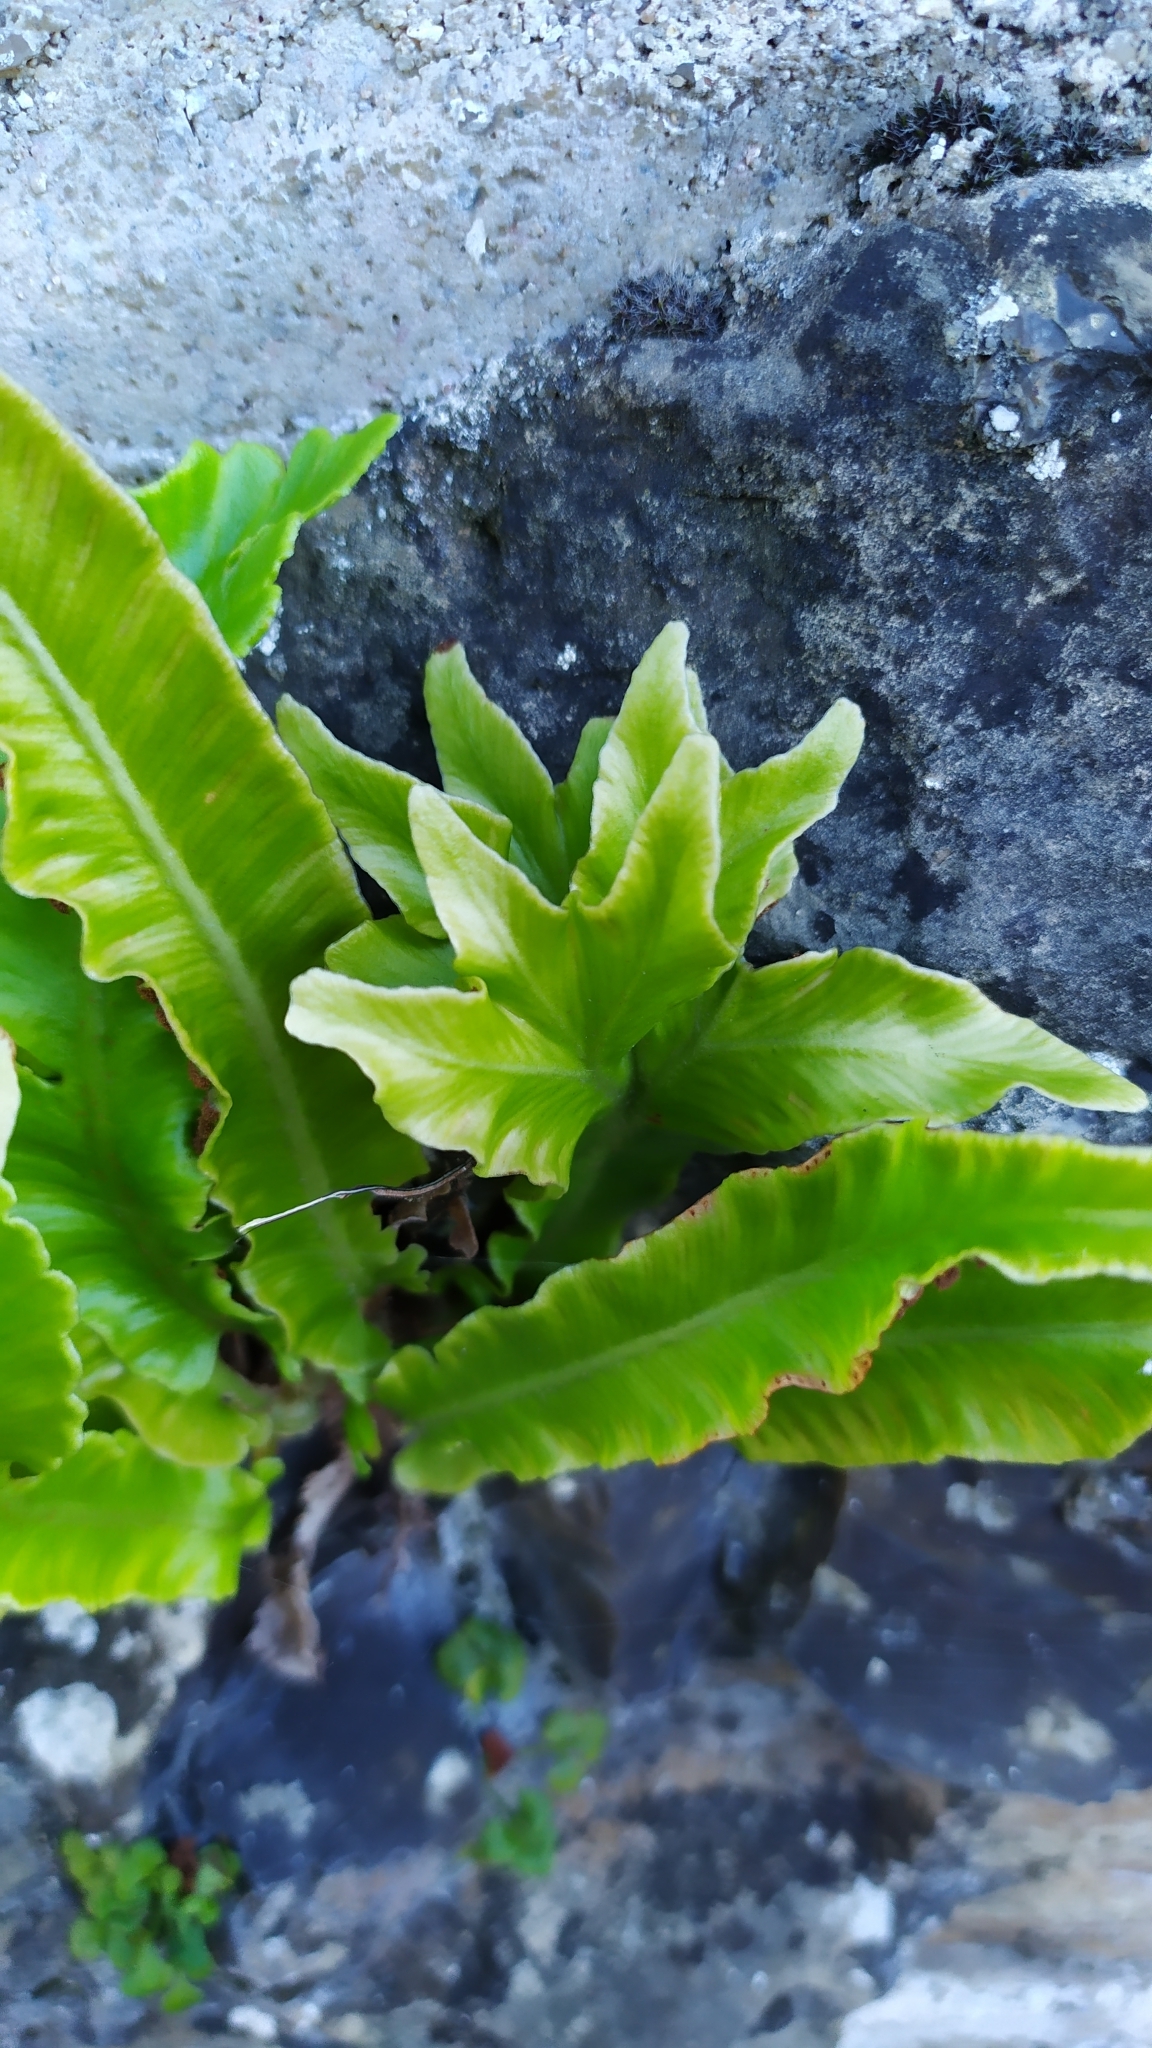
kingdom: Plantae
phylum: Tracheophyta
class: Polypodiopsida
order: Polypodiales
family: Aspleniaceae
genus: Asplenium
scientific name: Asplenium scolopendrium
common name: Hart's-tongue fern
